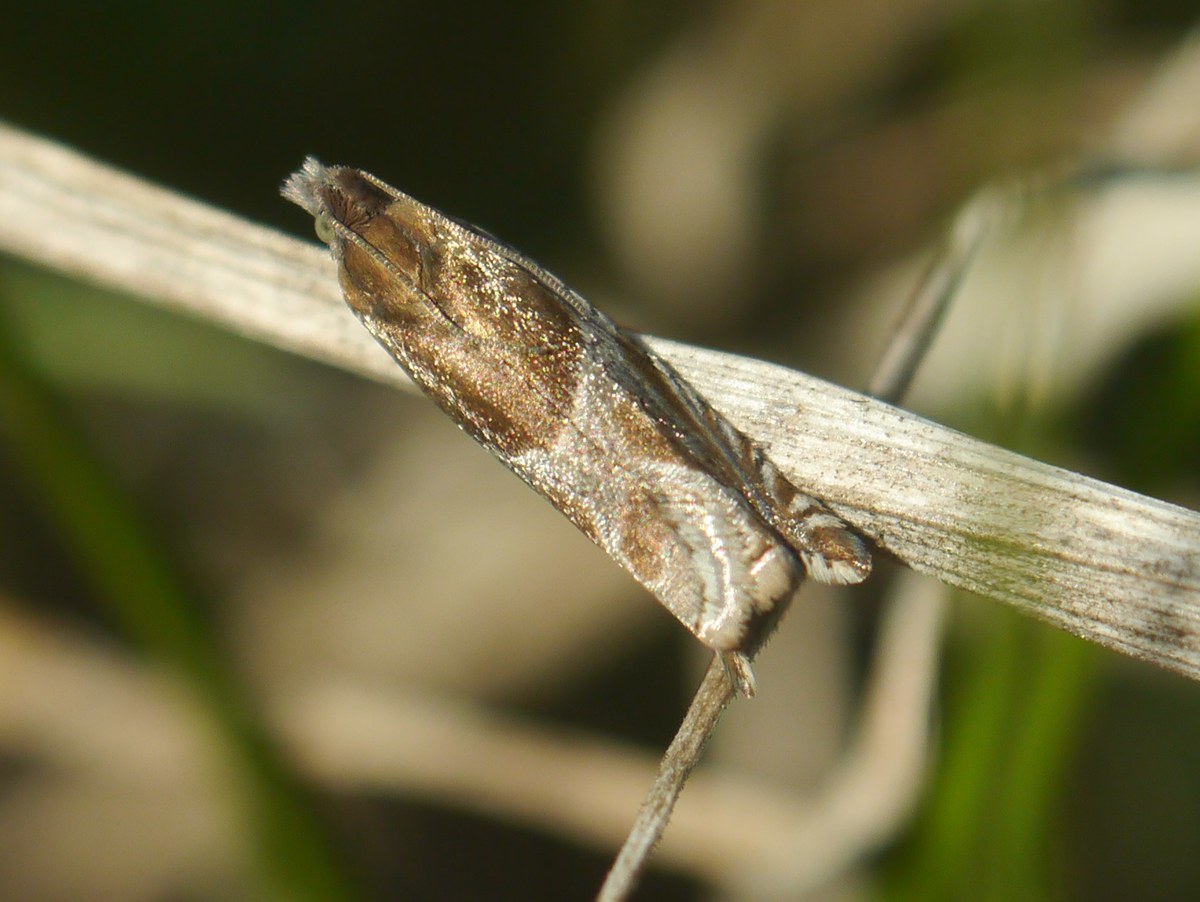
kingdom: Animalia
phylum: Arthropoda
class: Insecta
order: Lepidoptera
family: Tortricidae
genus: Ancylis
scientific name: Ancylis comptana
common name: Little roller
